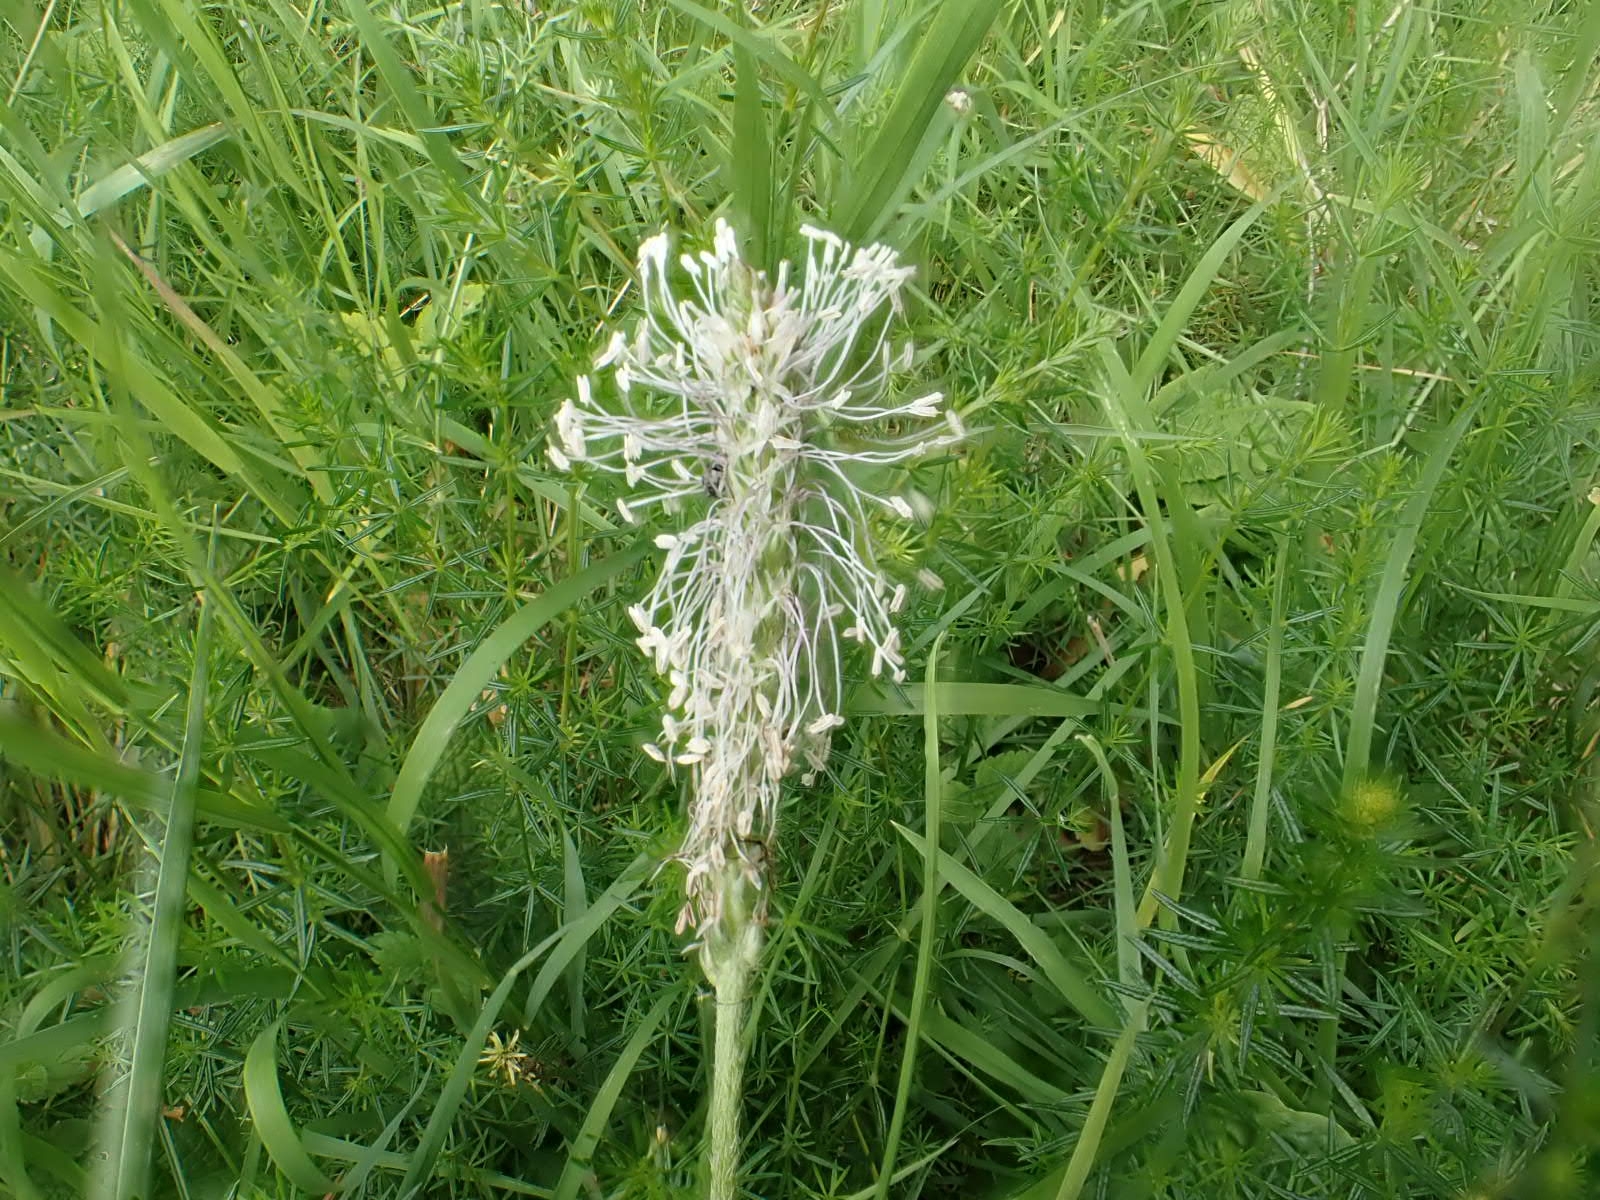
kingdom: Plantae
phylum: Tracheophyta
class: Magnoliopsida
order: Lamiales
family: Plantaginaceae
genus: Plantago
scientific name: Plantago media
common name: Hoary plantain
